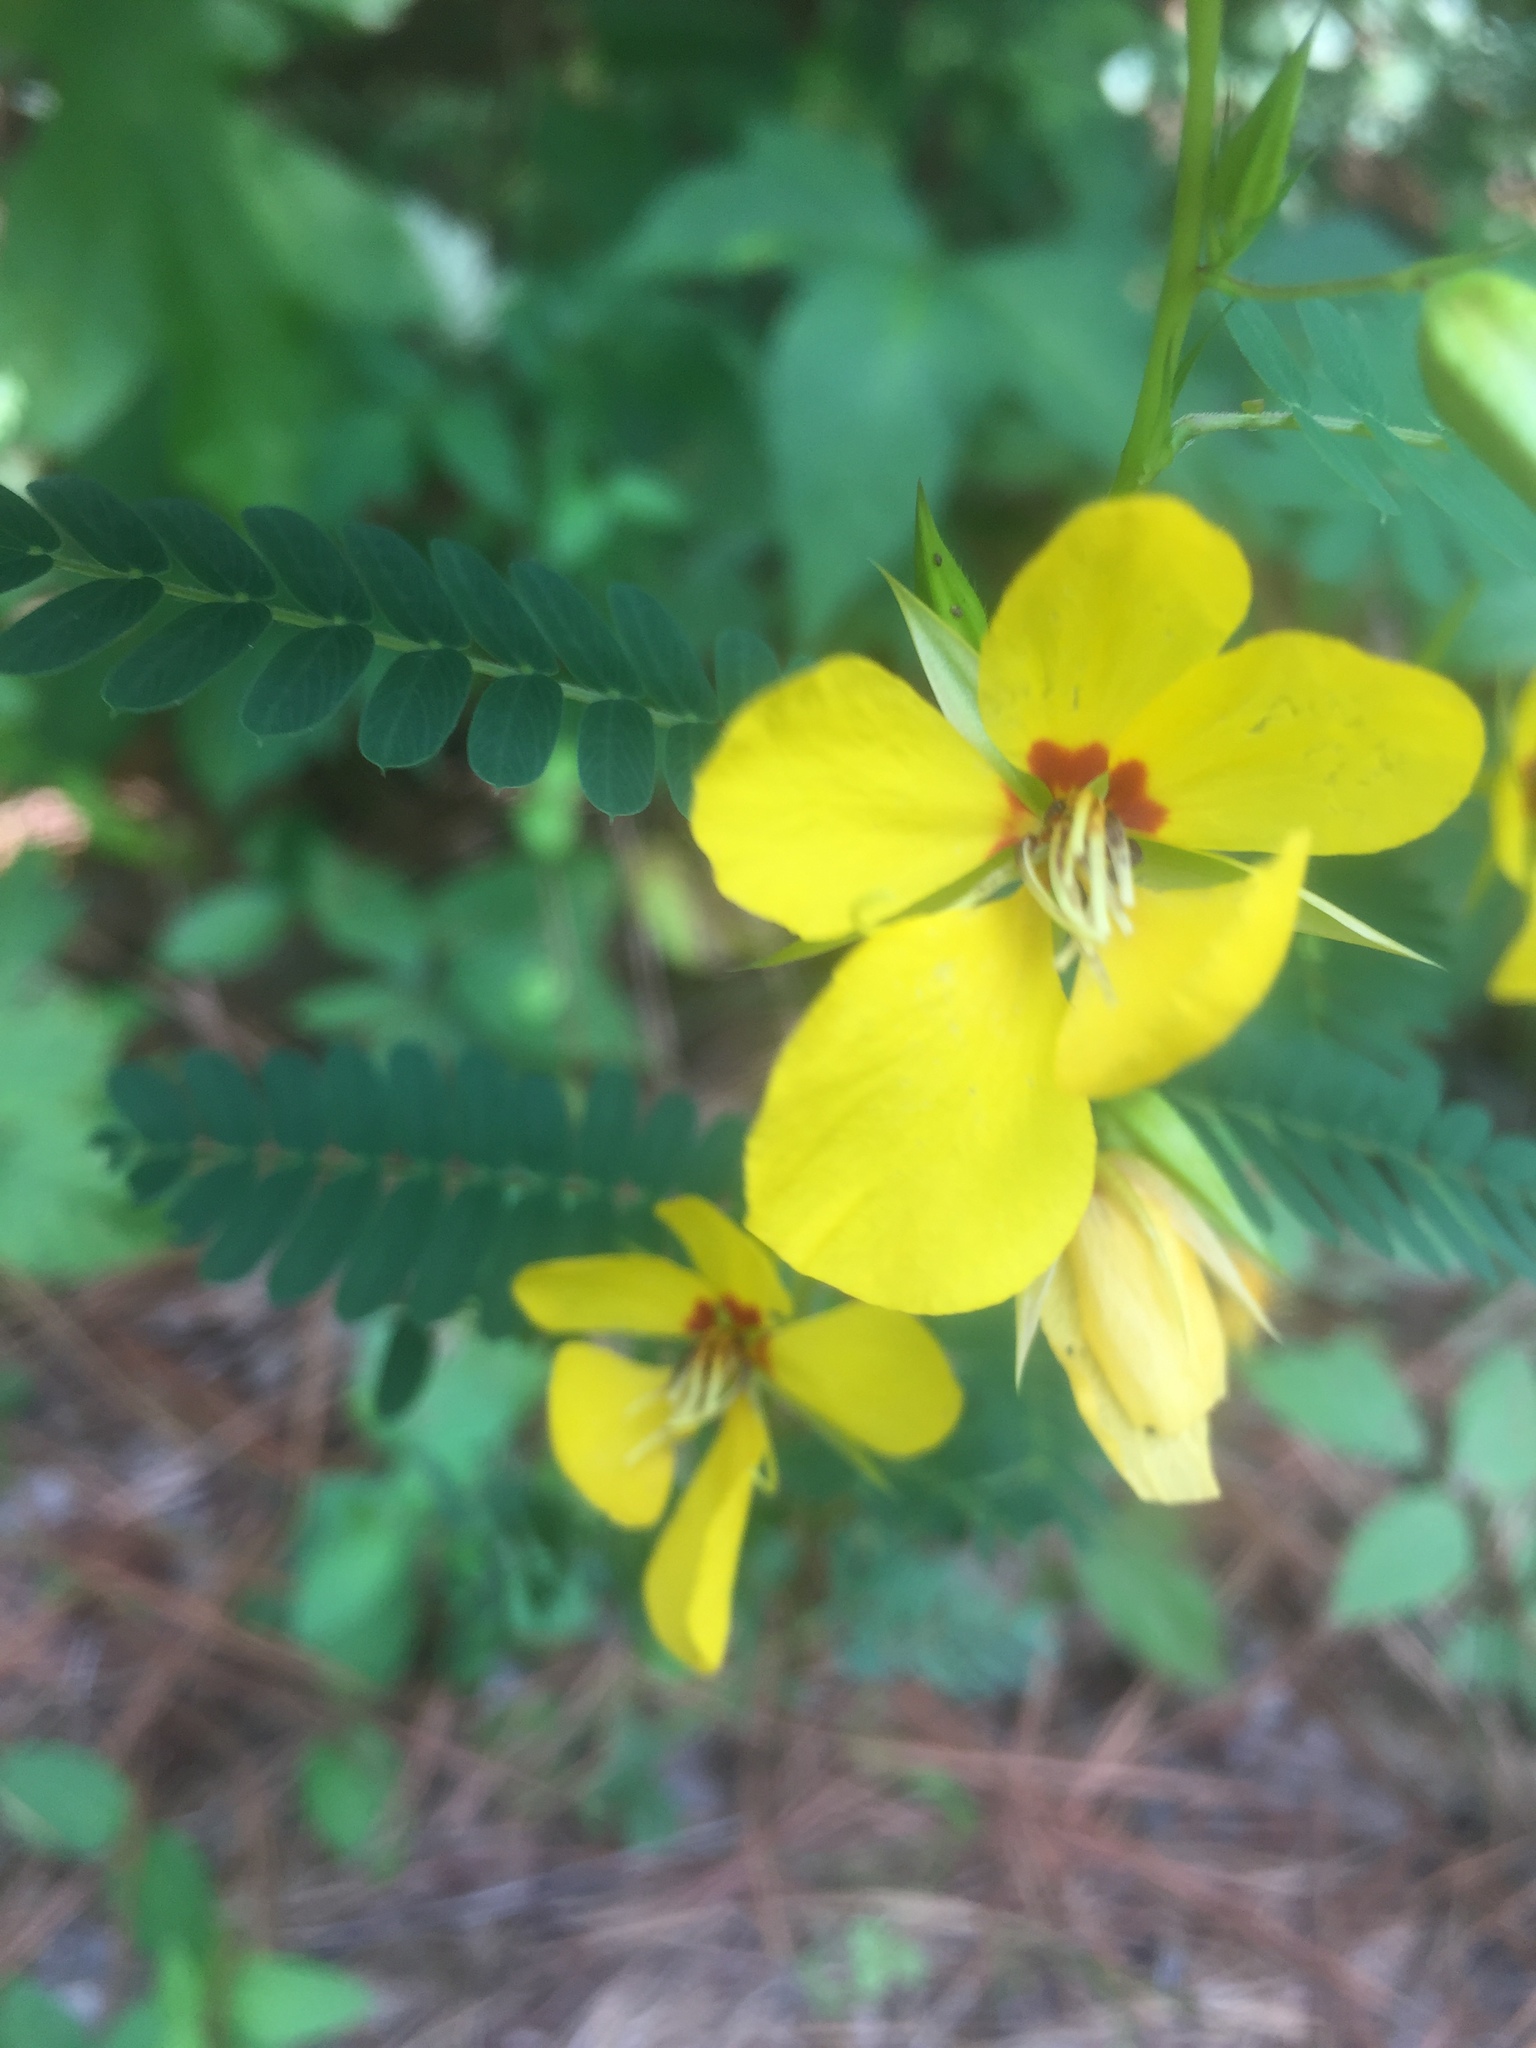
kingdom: Plantae
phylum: Tracheophyta
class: Magnoliopsida
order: Fabales
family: Fabaceae
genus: Chamaecrista
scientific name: Chamaecrista fasciculata
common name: Golden cassia
